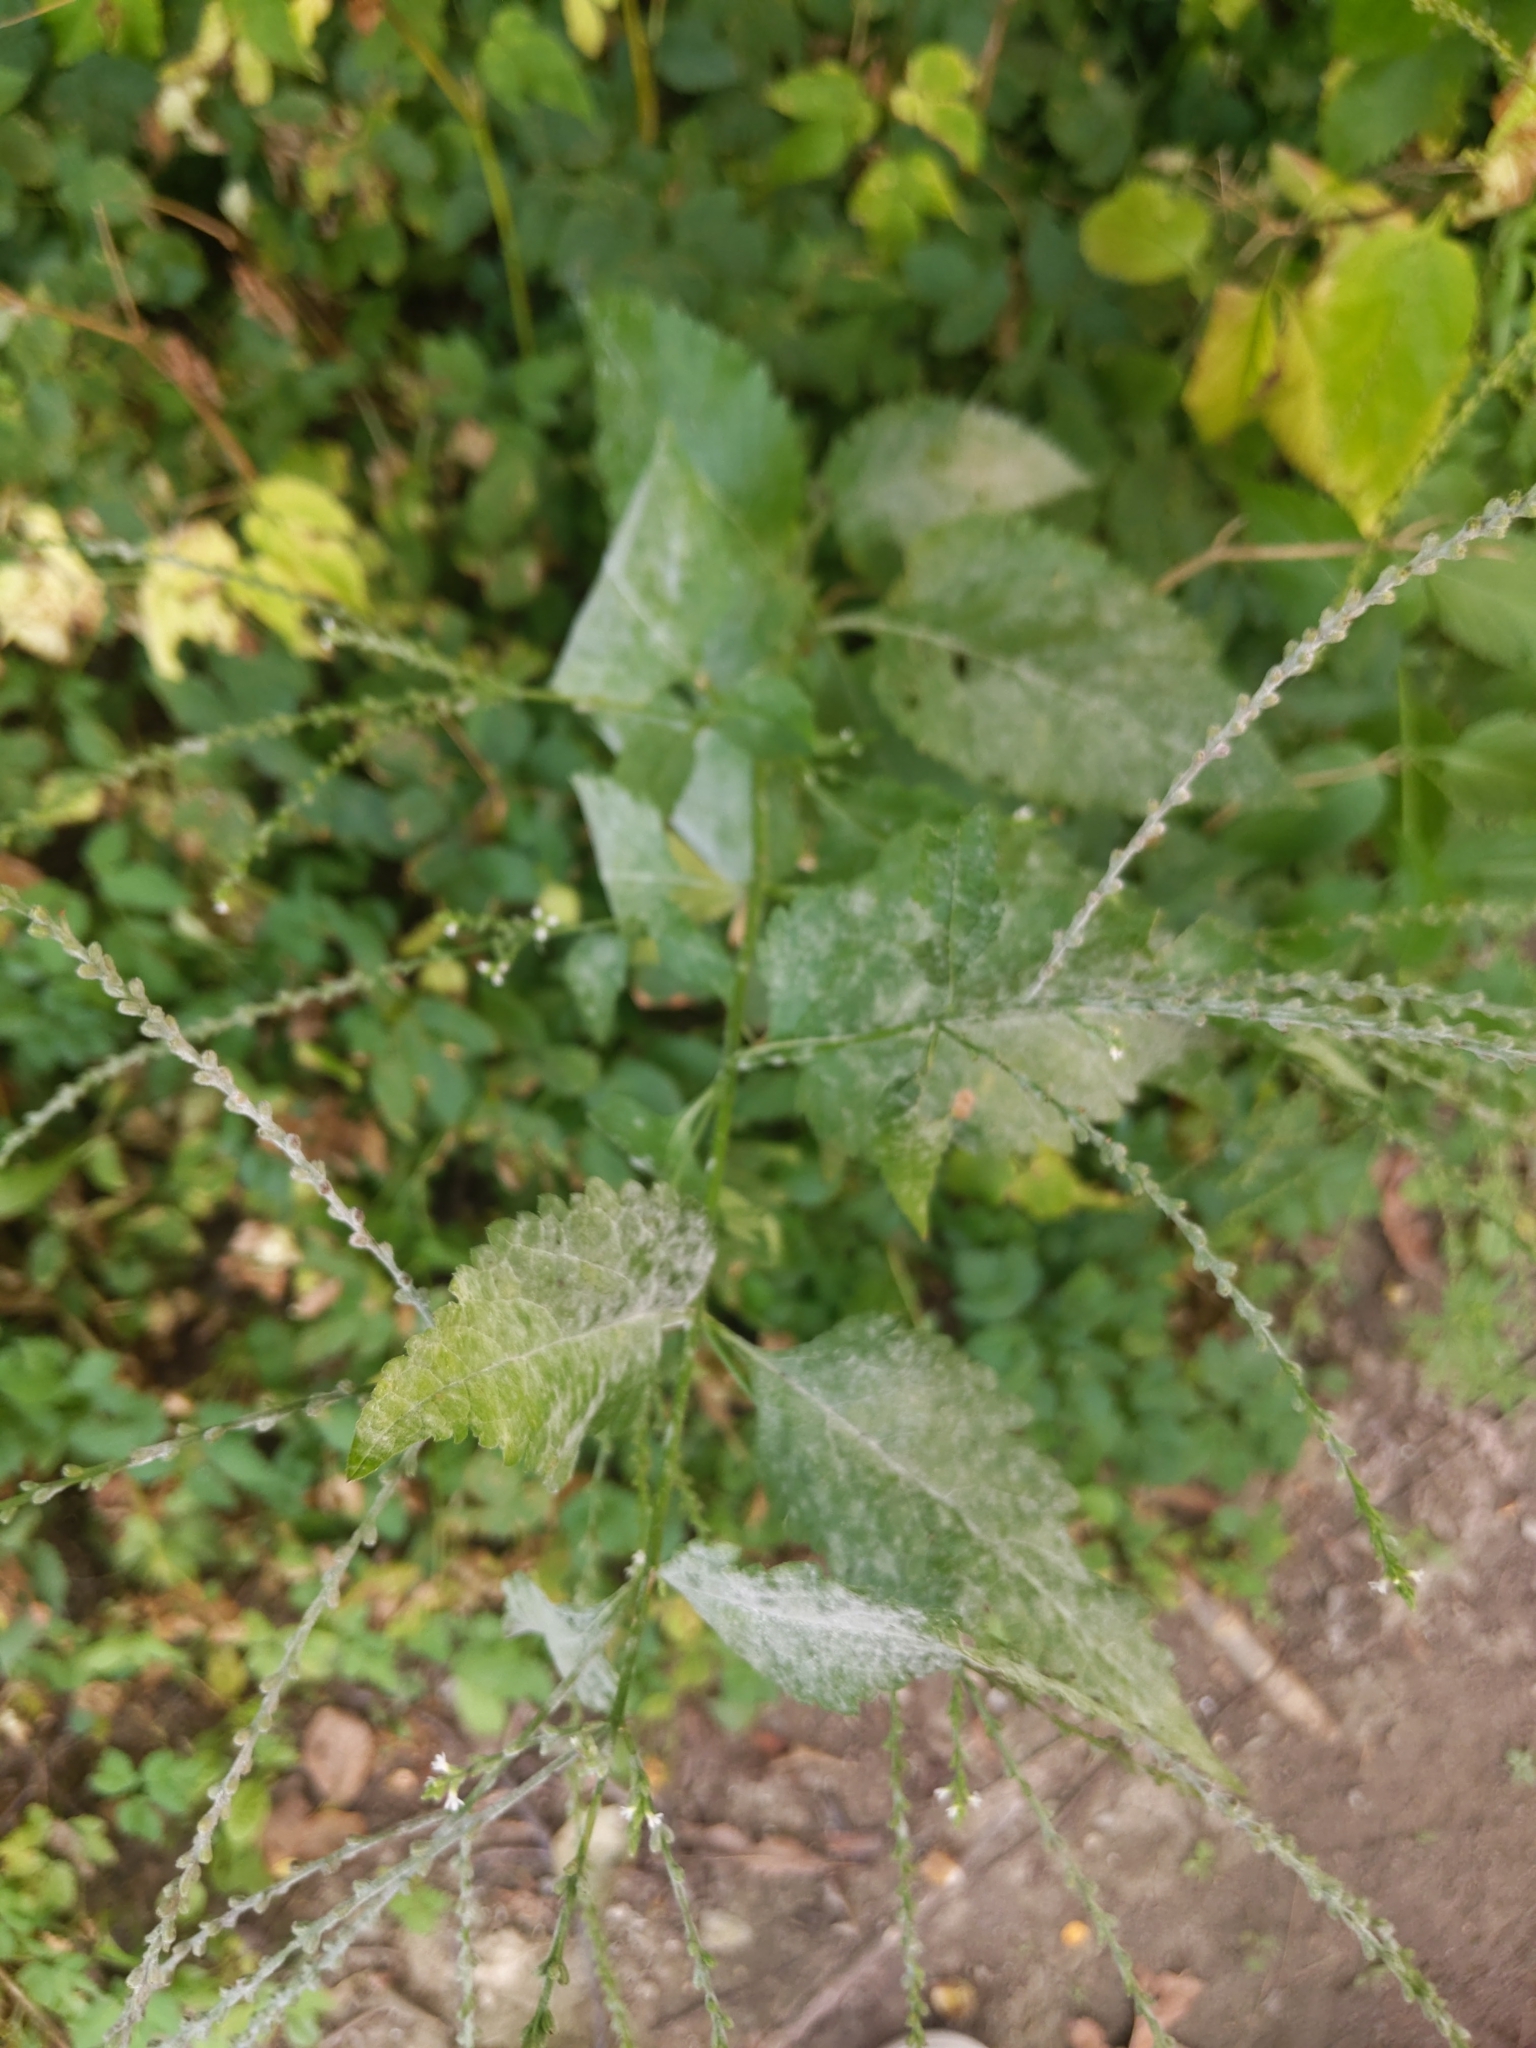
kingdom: Plantae
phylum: Tracheophyta
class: Magnoliopsida
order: Lamiales
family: Verbenaceae
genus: Verbena
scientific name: Verbena urticifolia
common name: Nettle-leaved vervain
